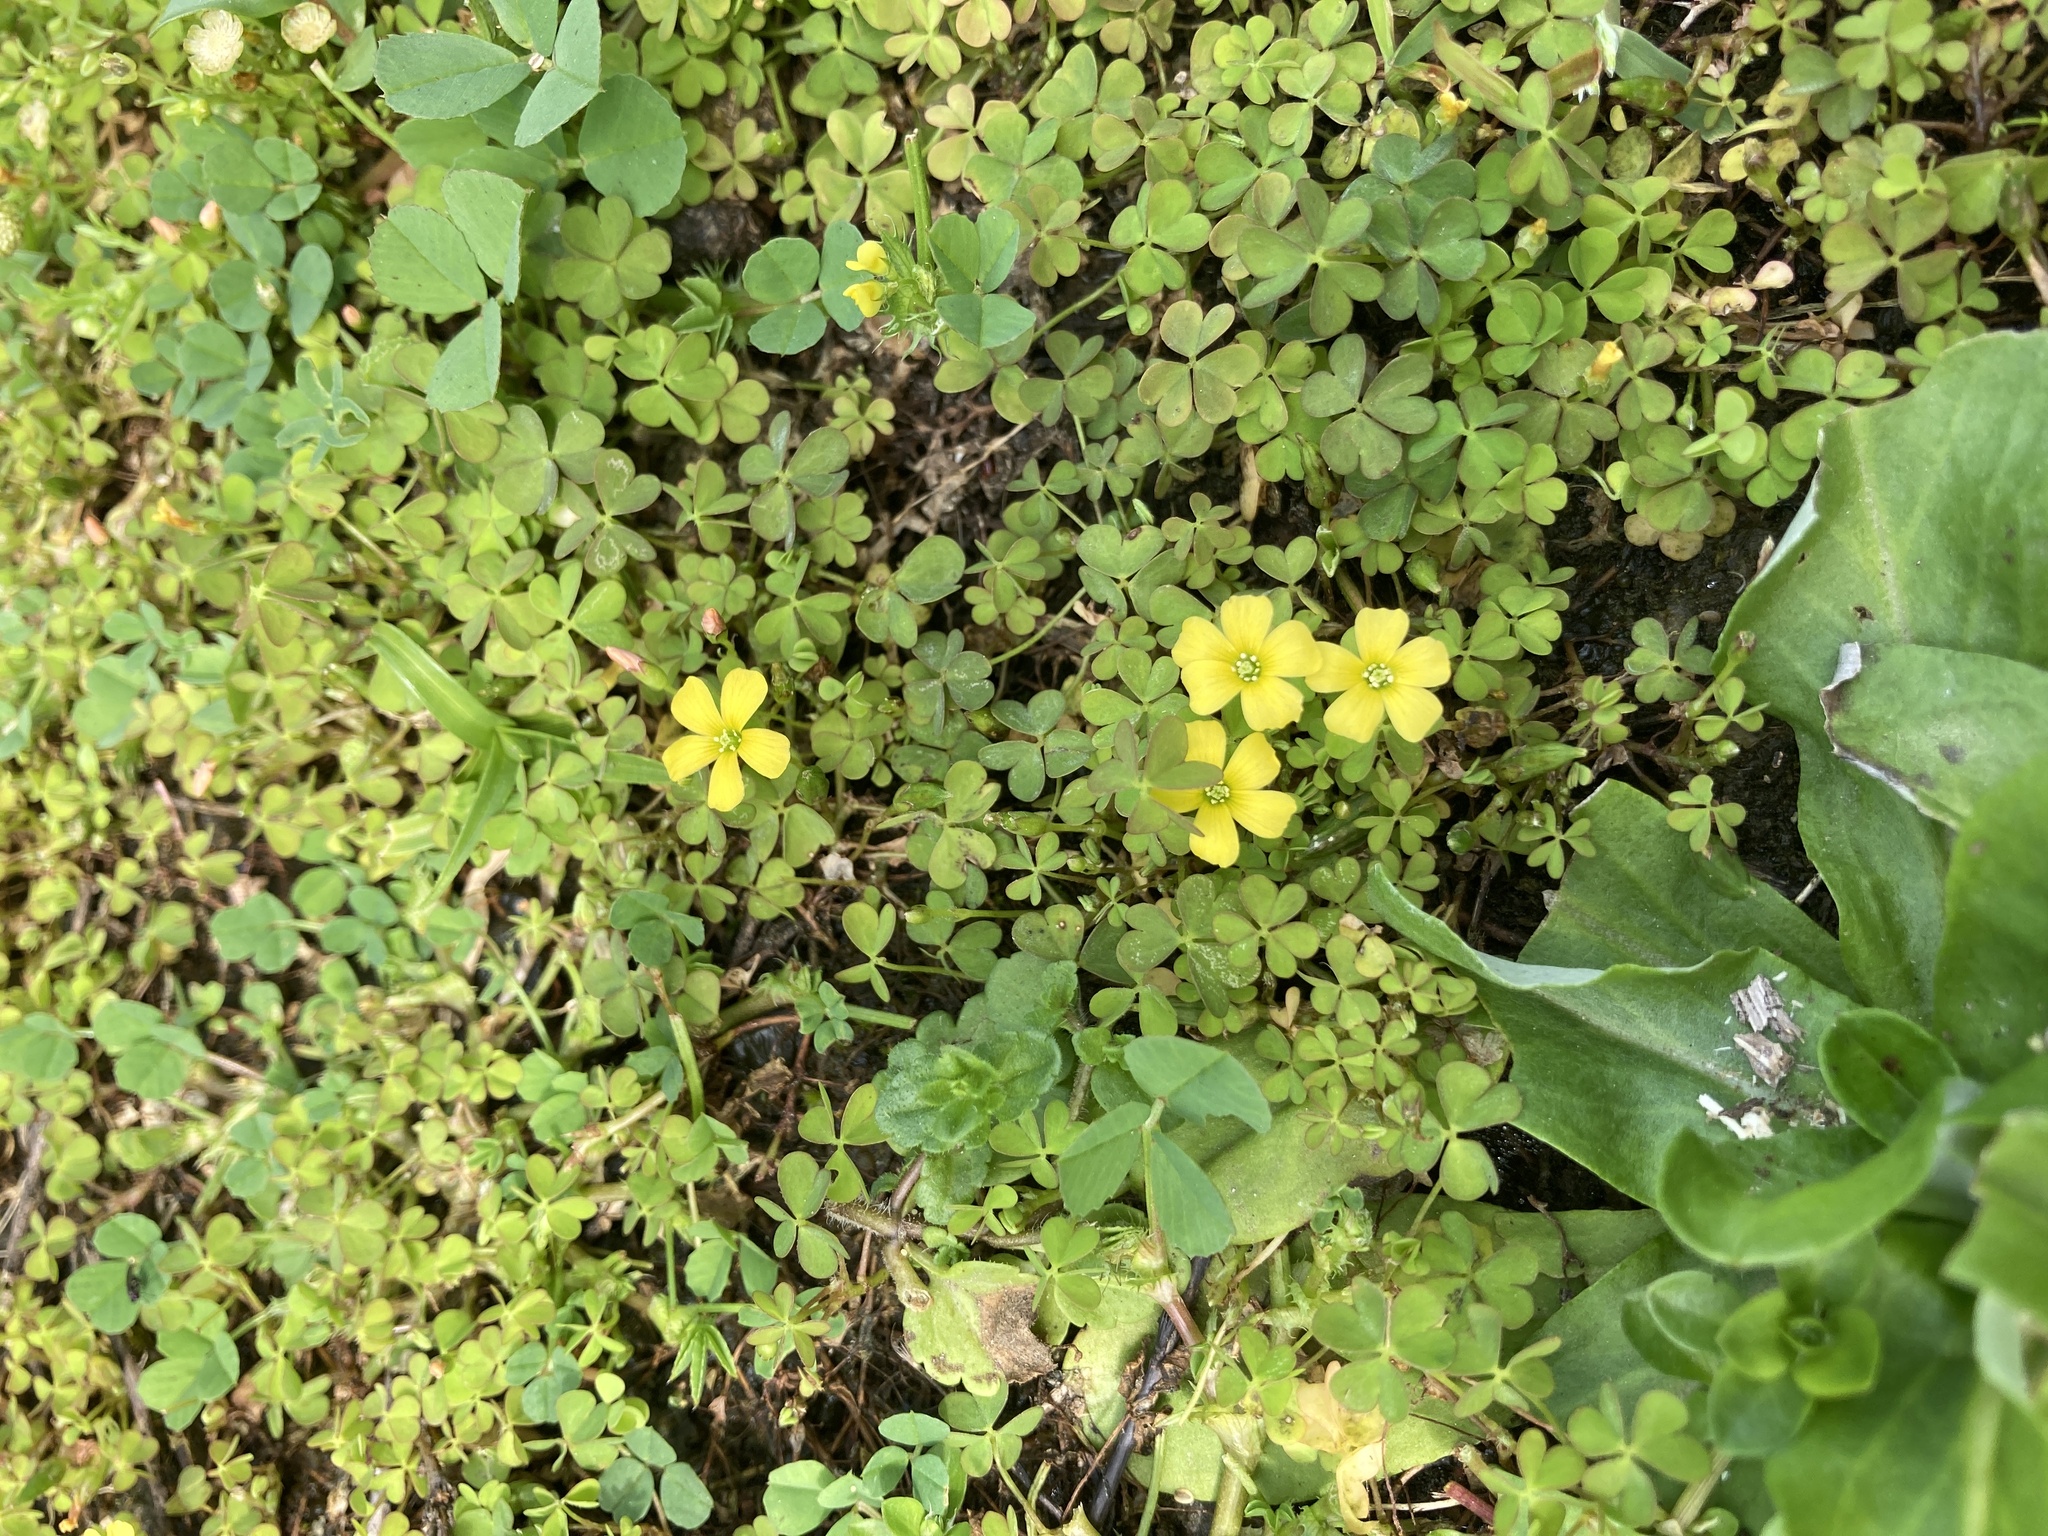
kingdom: Plantae
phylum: Tracheophyta
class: Magnoliopsida
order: Oxalidales
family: Oxalidaceae
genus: Oxalis
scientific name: Oxalis exilis
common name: Least yellow-sorrel
